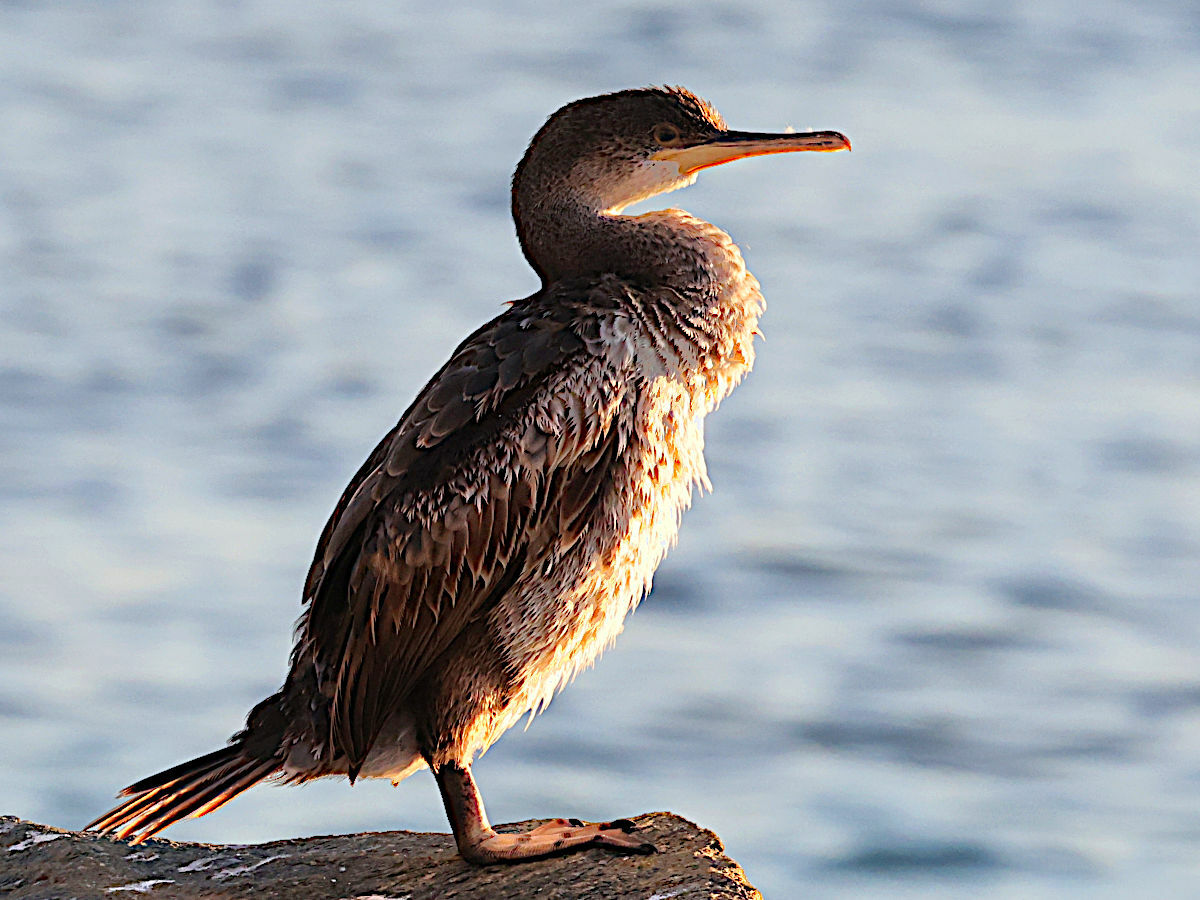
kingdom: Animalia
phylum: Chordata
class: Aves
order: Suliformes
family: Phalacrocoracidae
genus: Phalacrocorax
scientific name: Phalacrocorax aristotelis
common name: European shag
